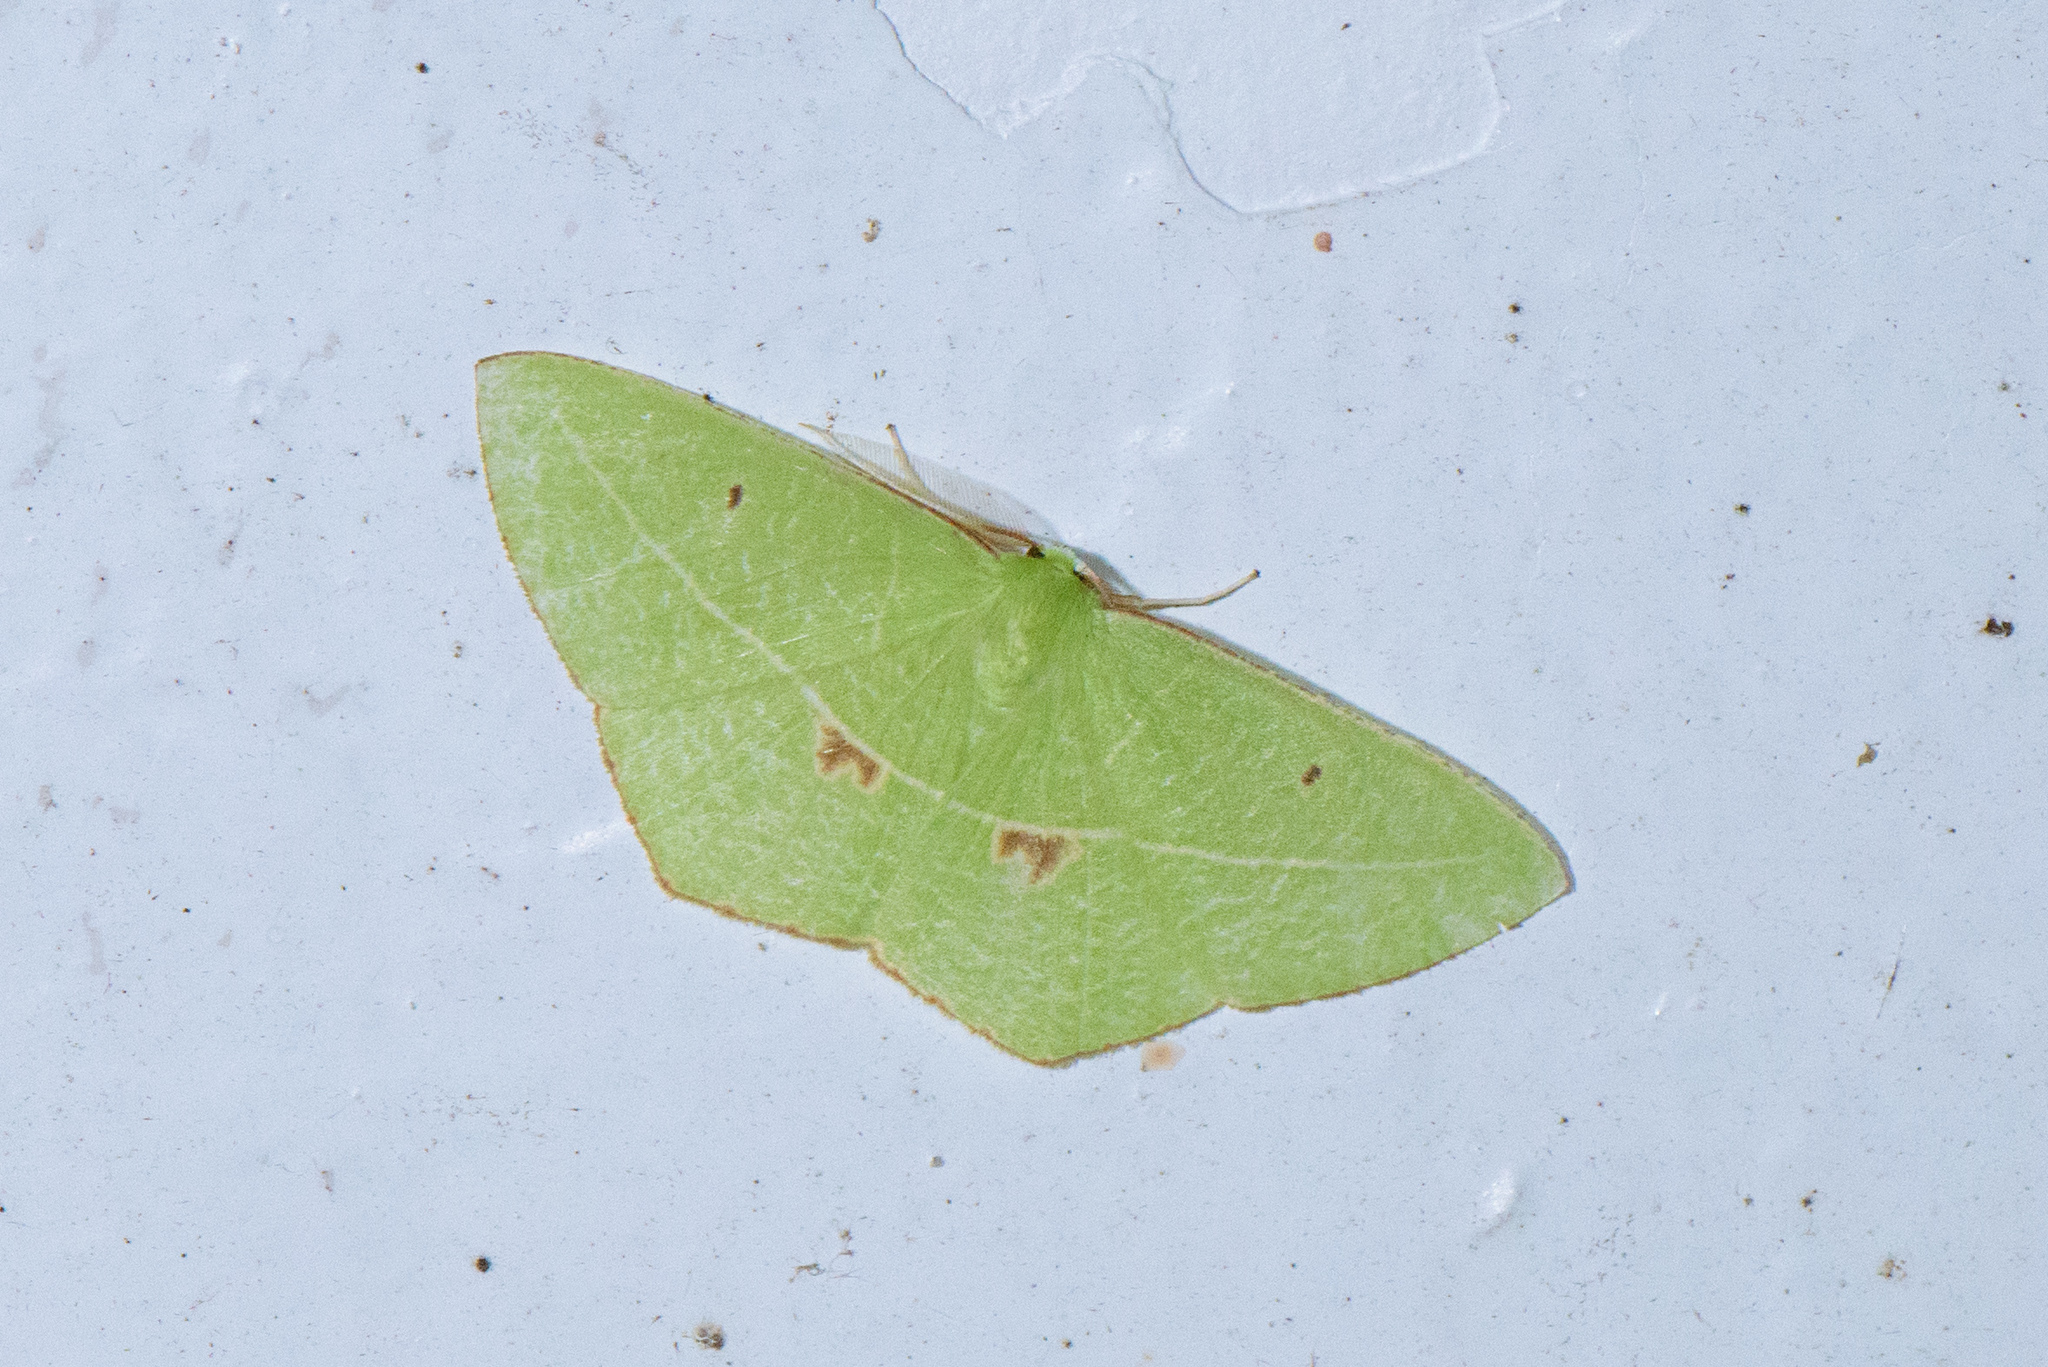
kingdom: Animalia
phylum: Arthropoda
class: Insecta
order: Lepidoptera
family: Geometridae
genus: Tanaoctenia
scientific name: Tanaoctenia haliaria
